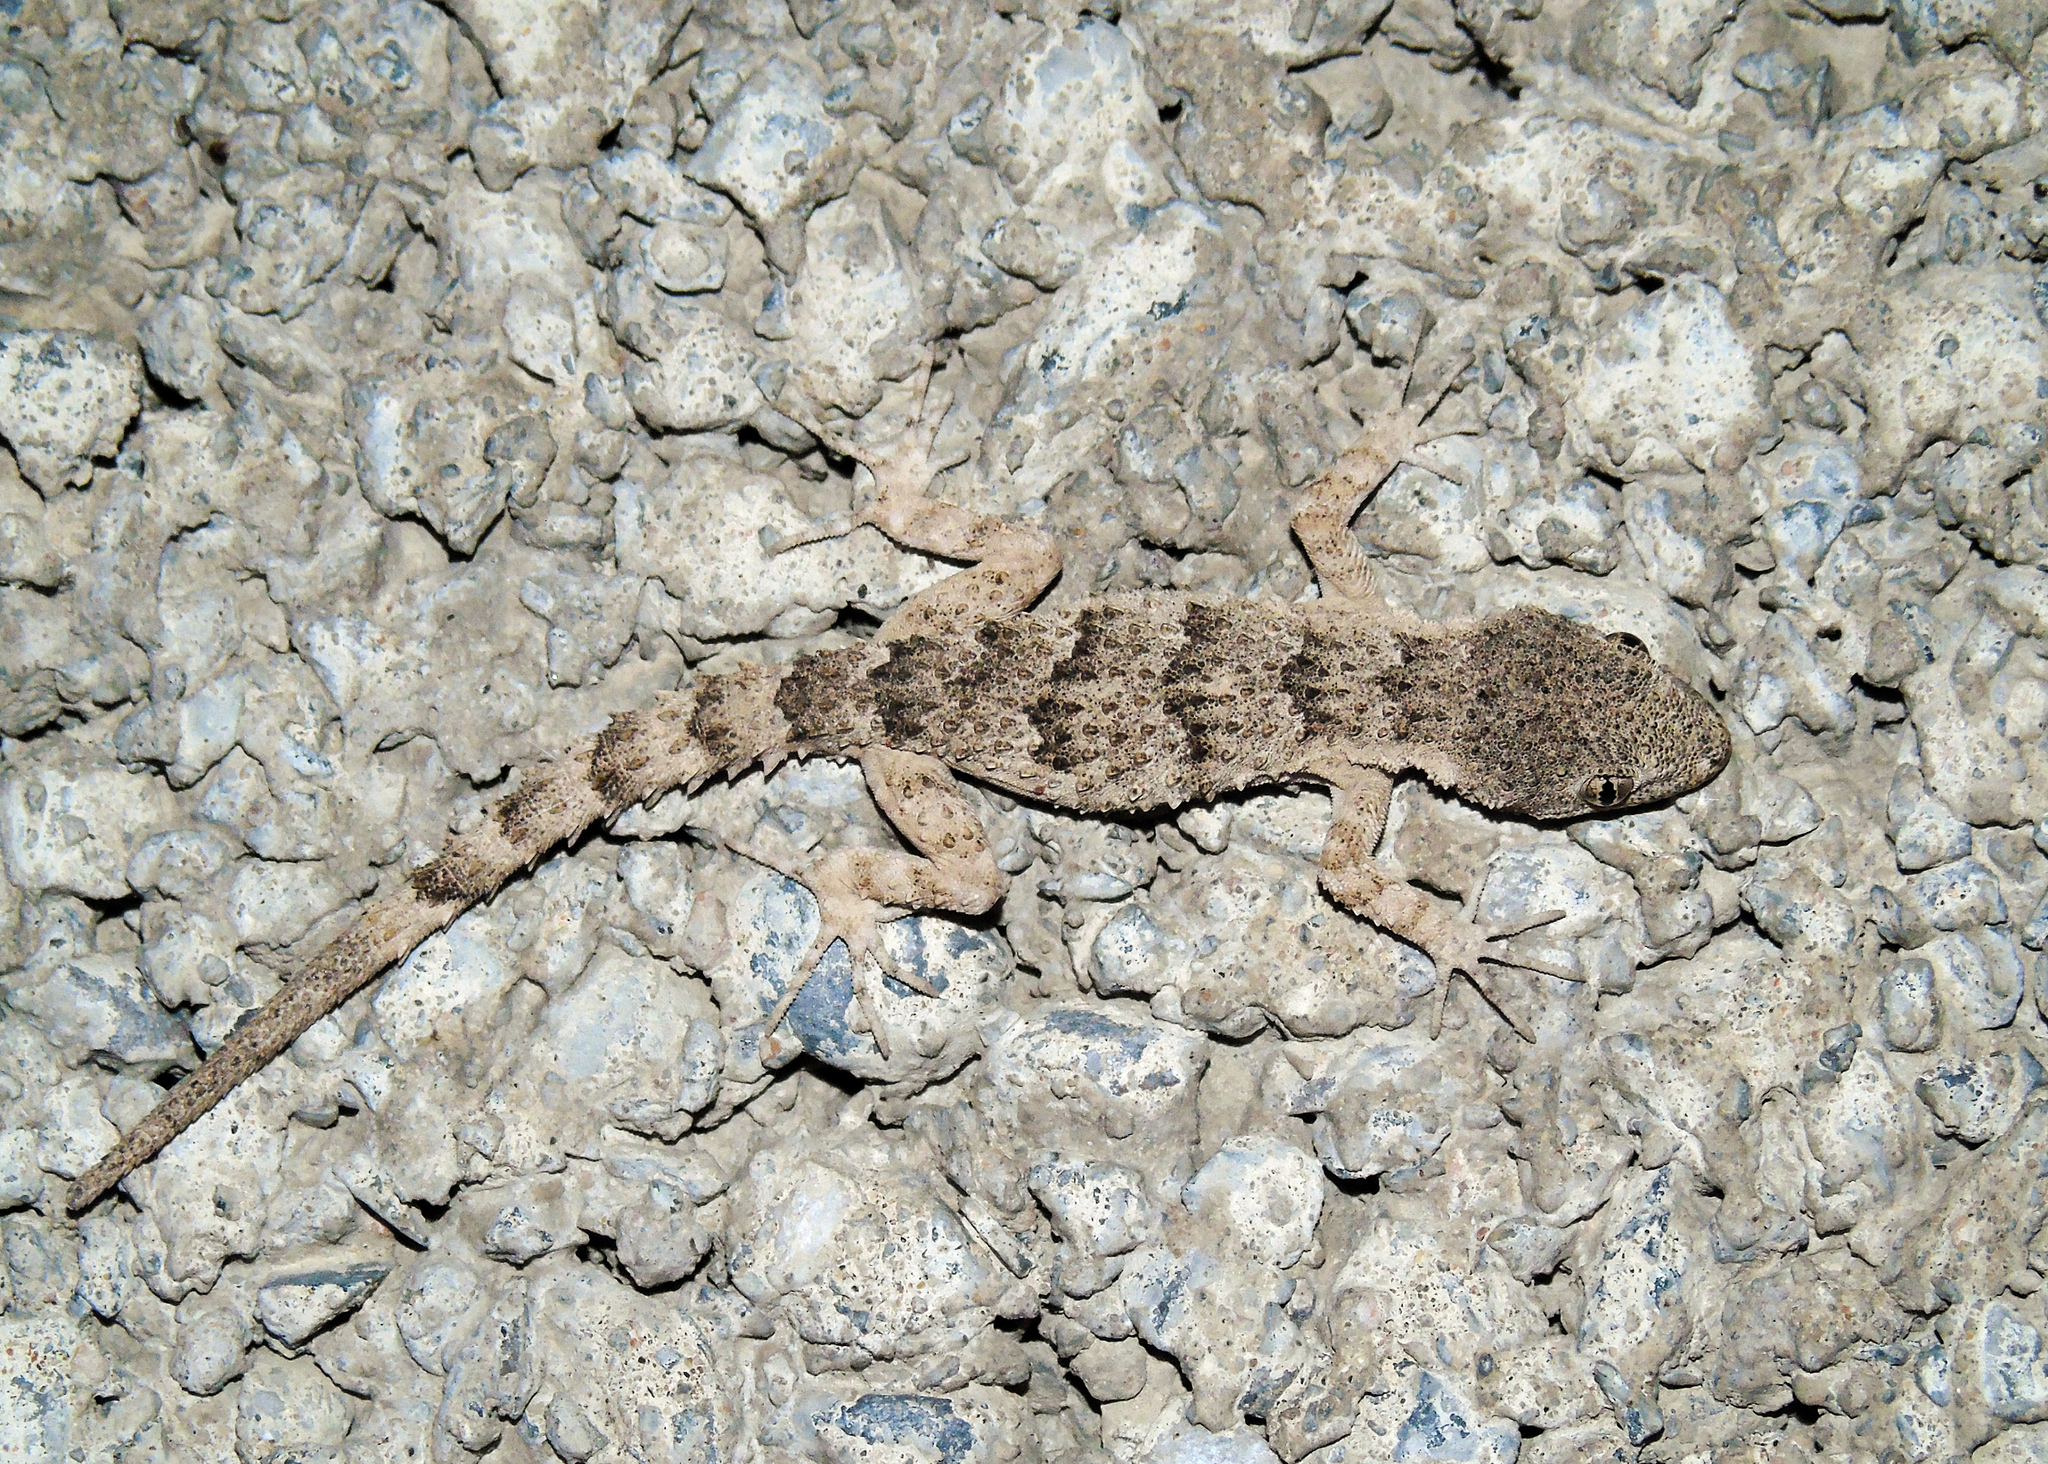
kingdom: Animalia
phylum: Chordata
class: Squamata
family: Gekkonidae
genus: Mediodactylus
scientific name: Mediodactylus russowii
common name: Grey thin-toed gecko
